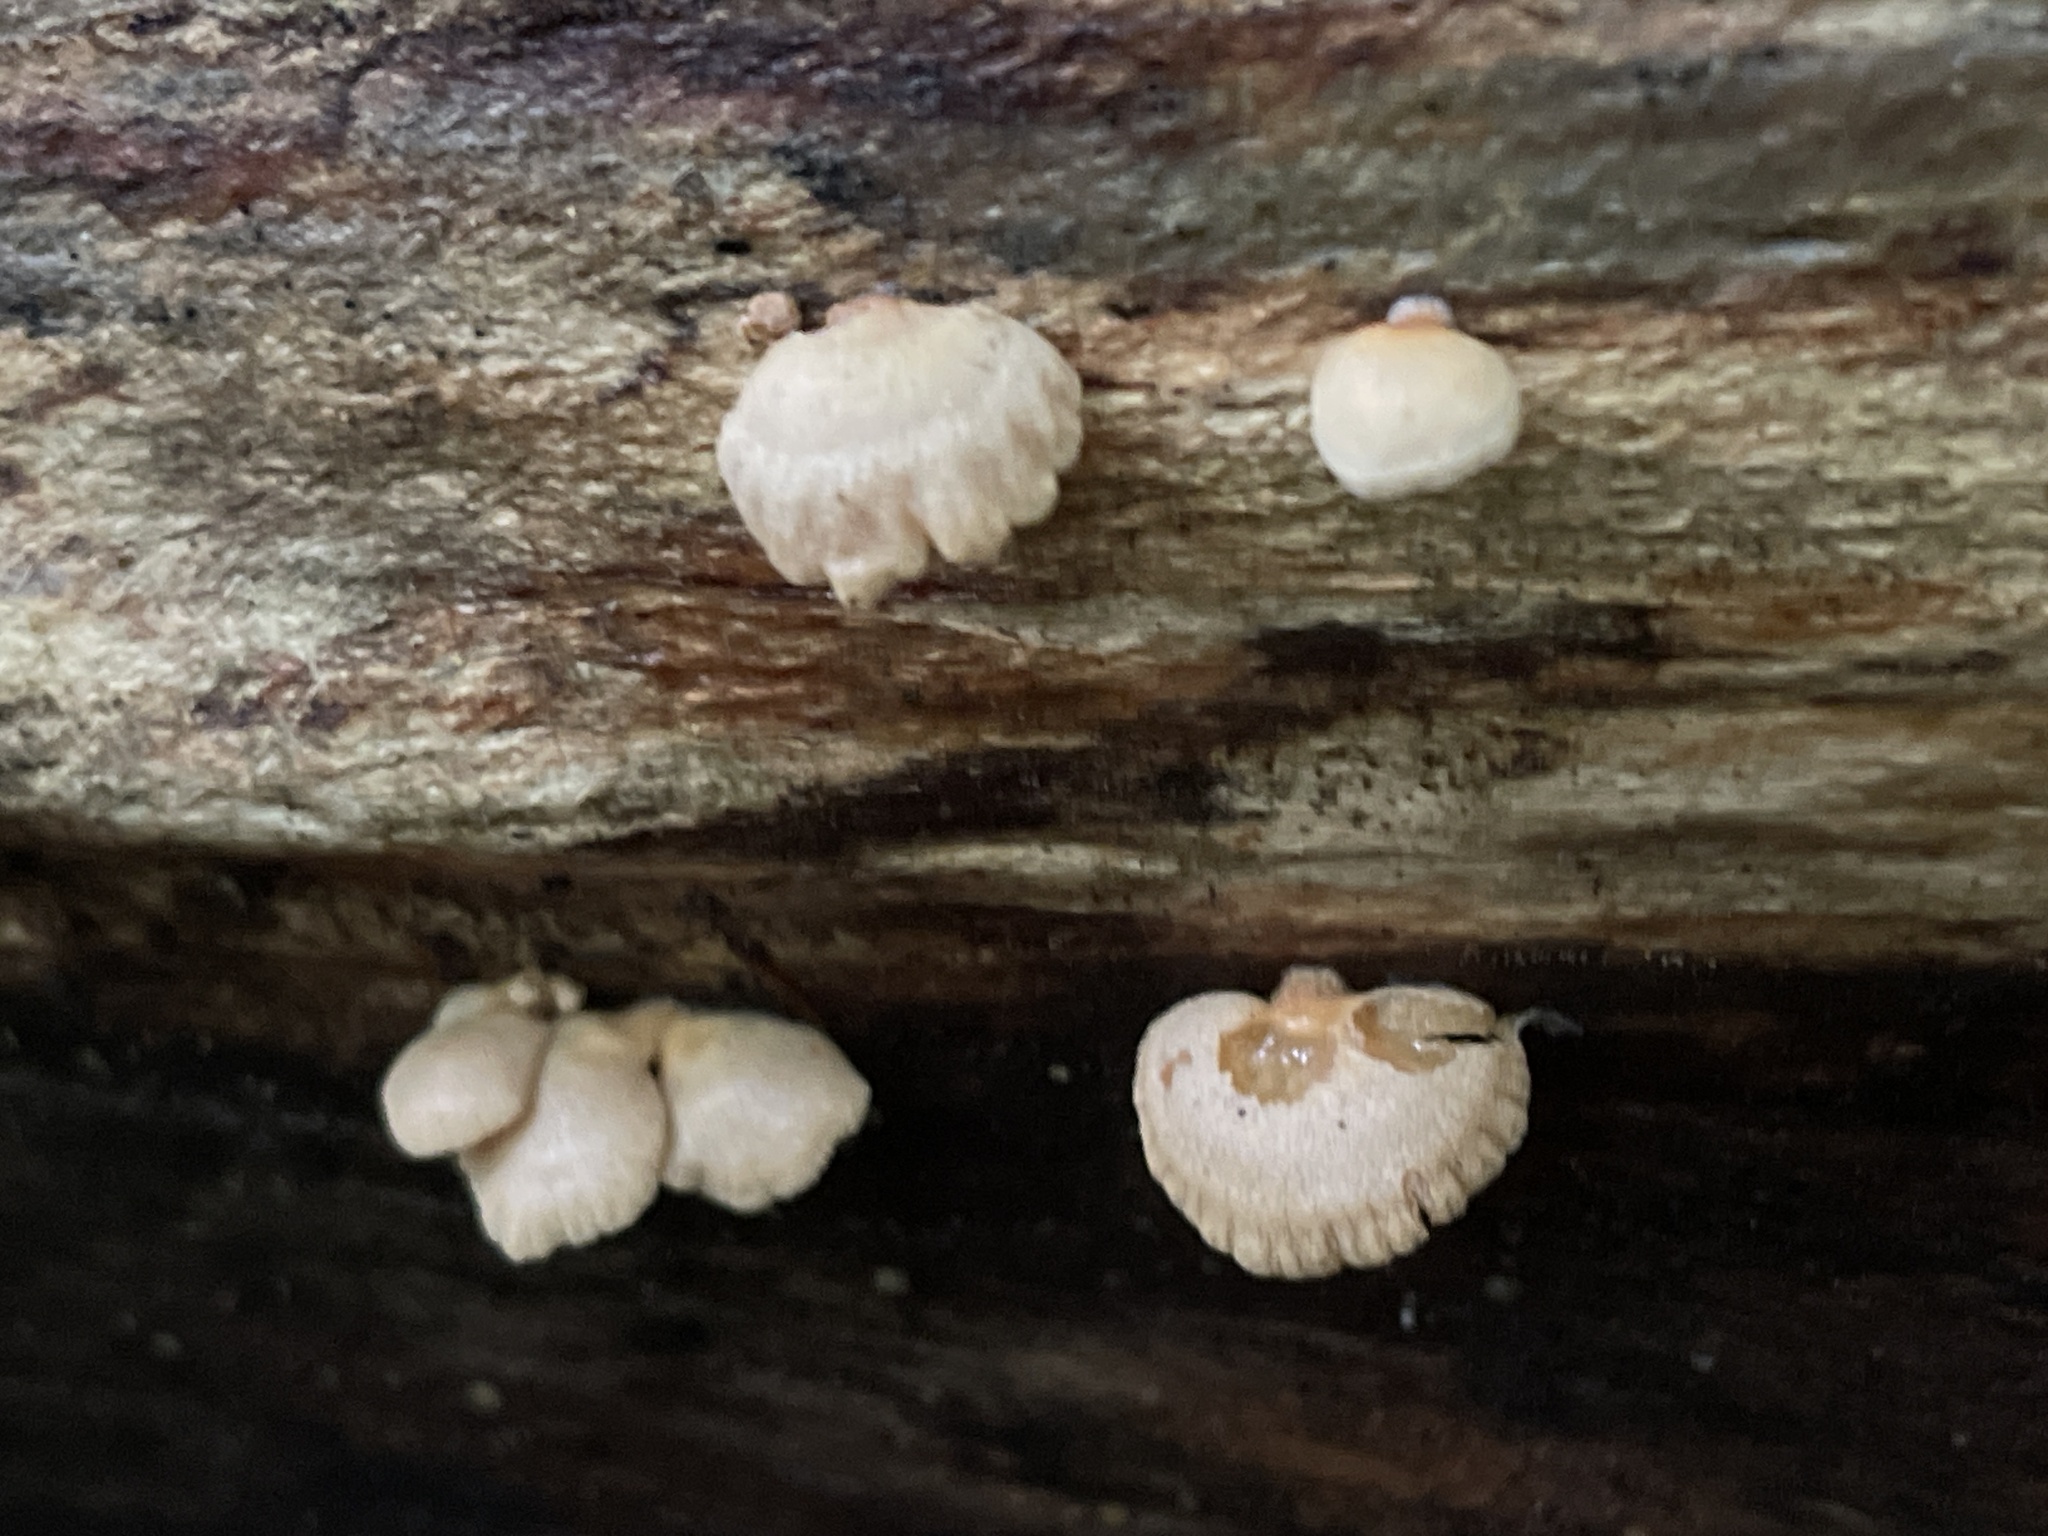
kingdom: Fungi
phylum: Basidiomycota
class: Agaricomycetes
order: Agaricales
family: Mycenaceae
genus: Panellus
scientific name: Panellus stipticus
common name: Bitter oysterling
